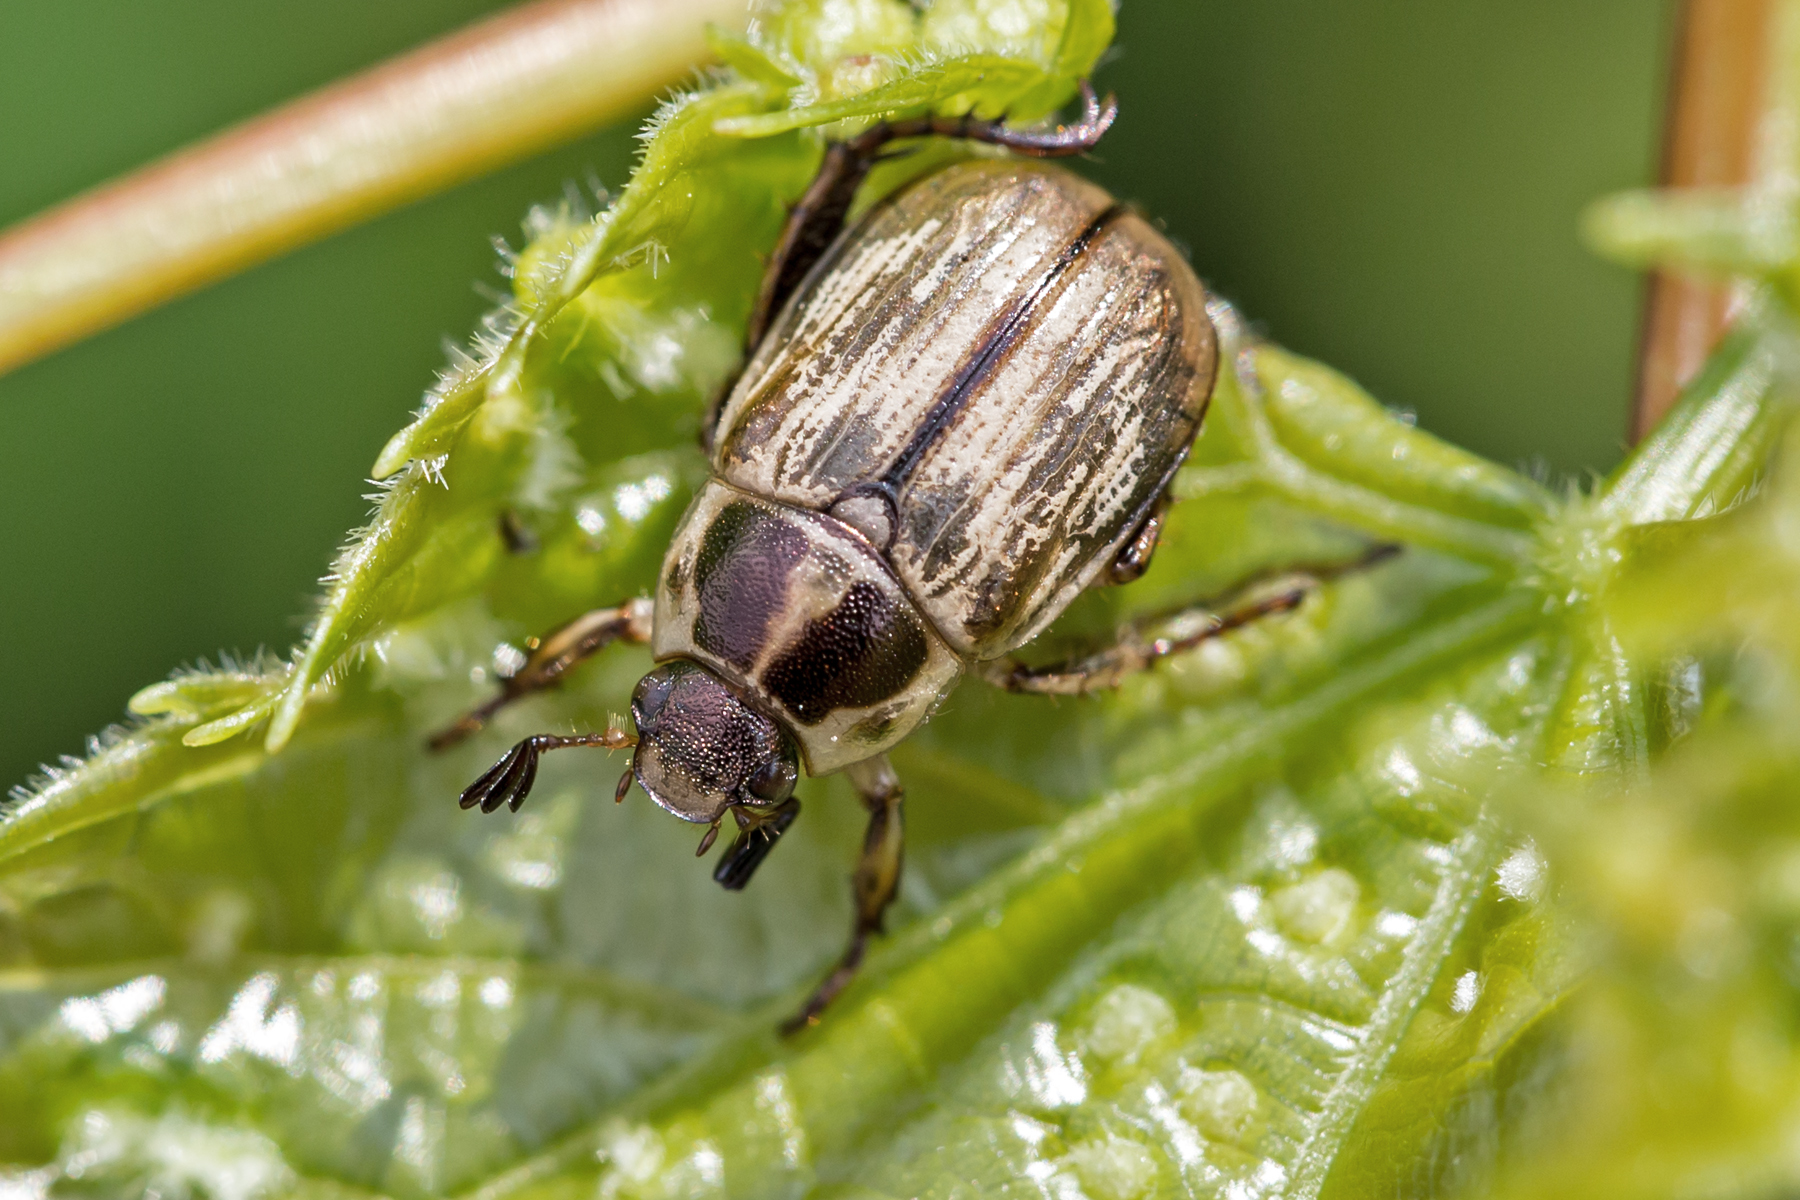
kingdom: Animalia
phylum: Arthropoda
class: Insecta
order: Coleoptera
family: Scarabaeidae
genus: Exomala
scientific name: Exomala orientalis
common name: Oriental beetle
